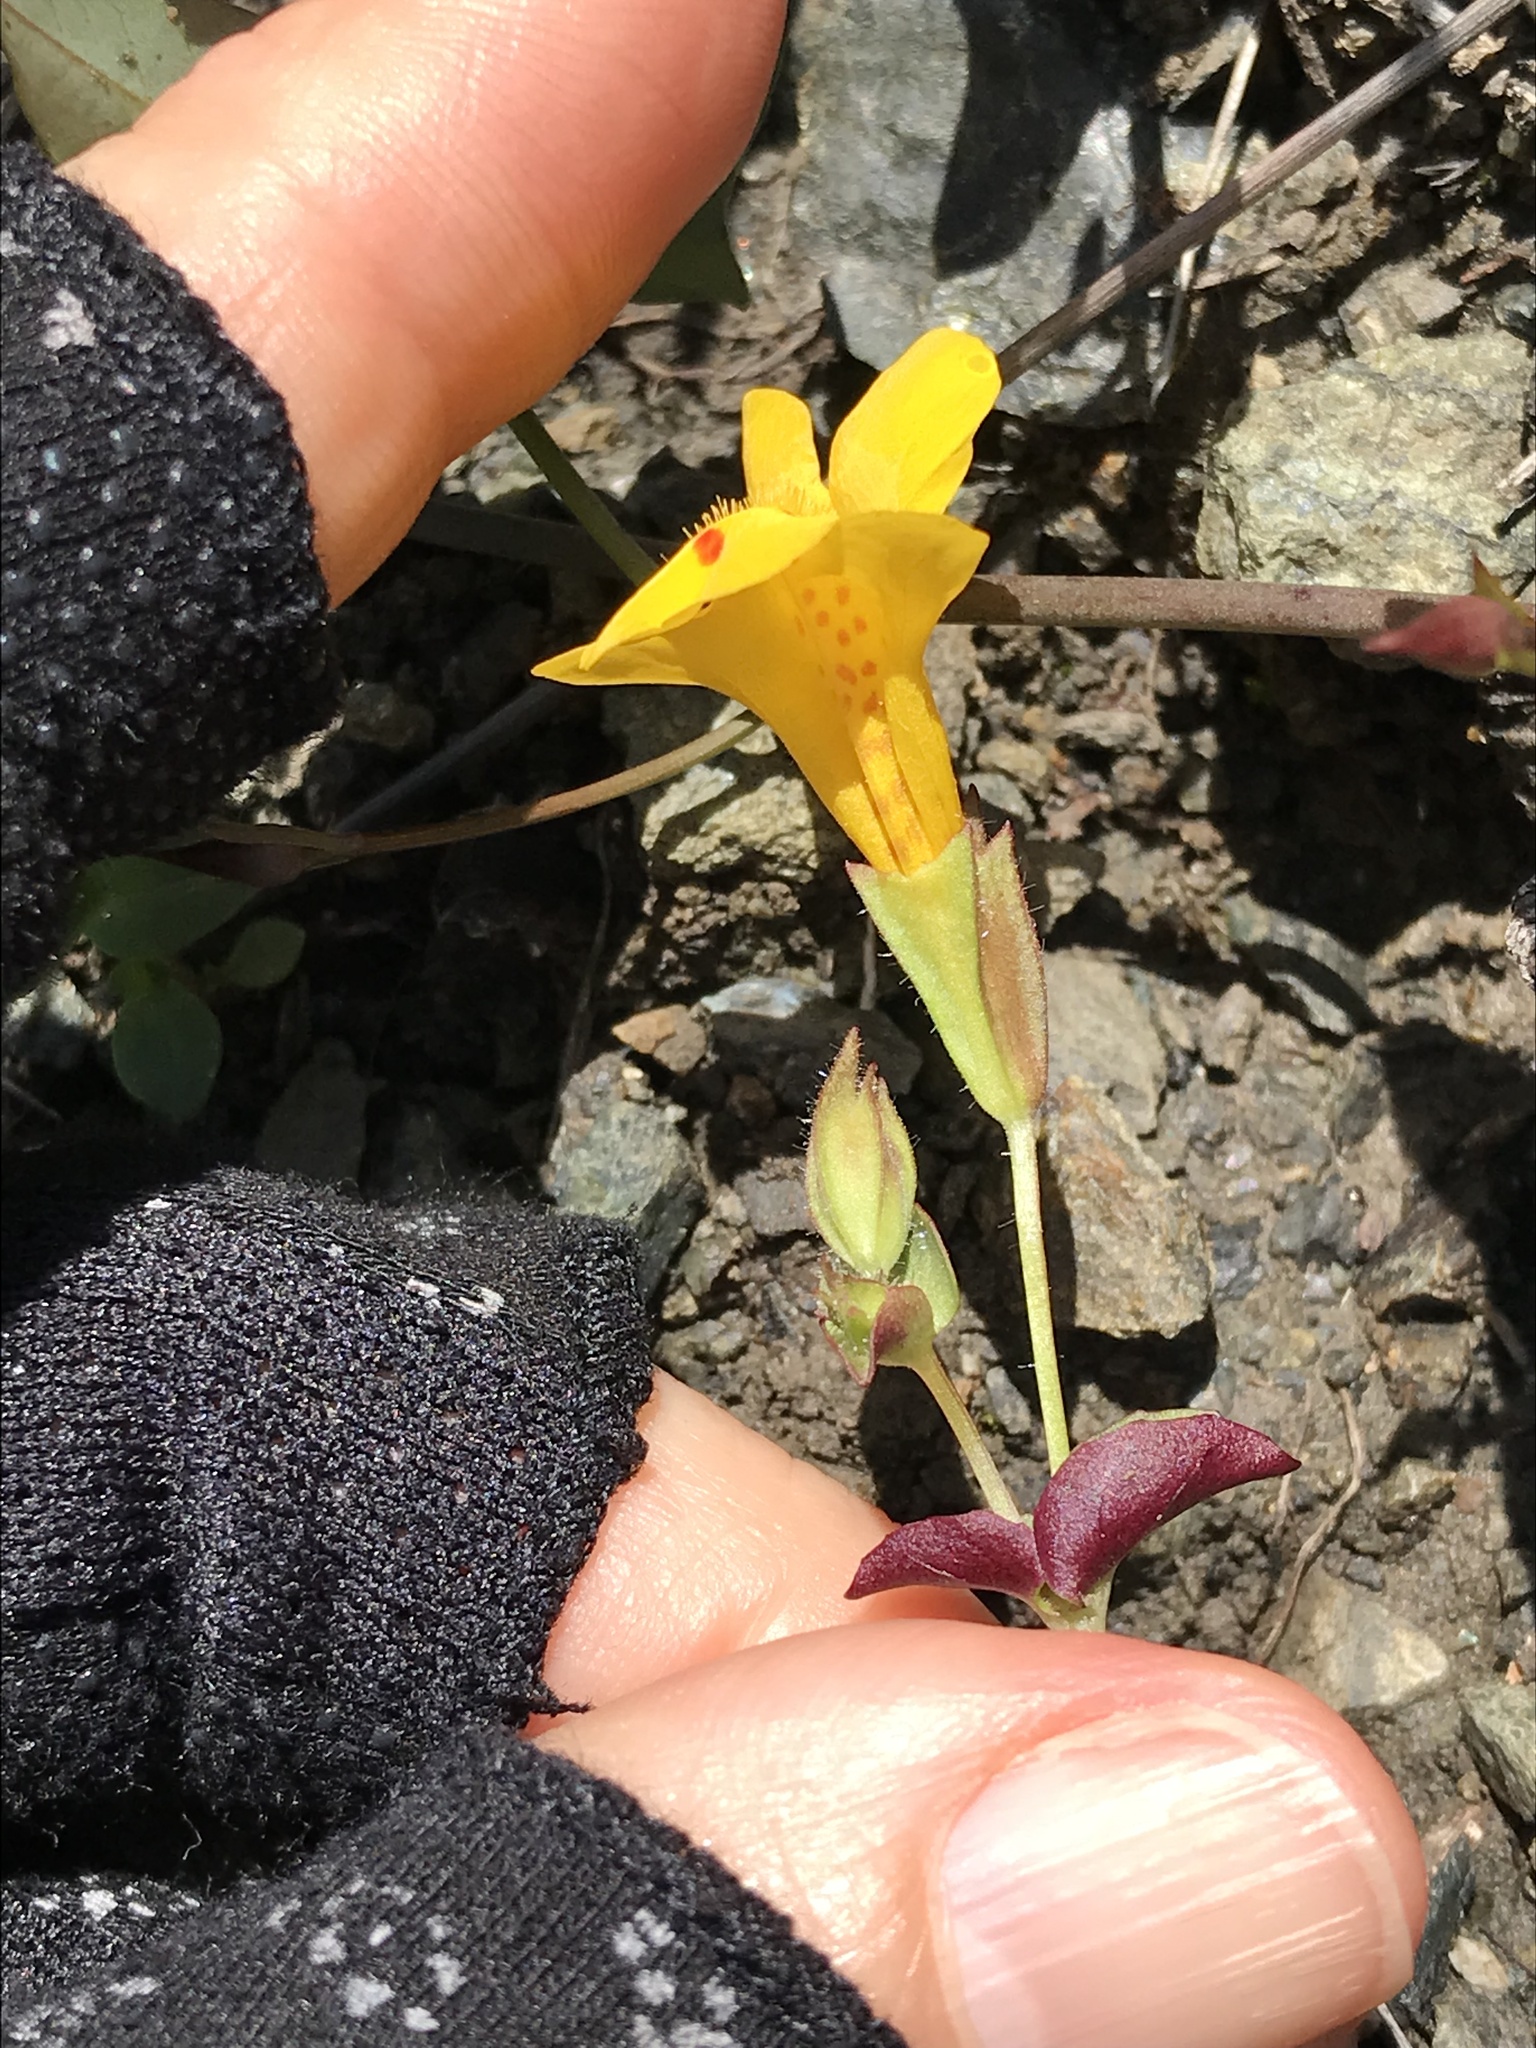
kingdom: Plantae
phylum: Tracheophyta
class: Magnoliopsida
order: Lamiales
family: Phrymaceae
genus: Erythranthe
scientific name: Erythranthe microphylla
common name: Bentham's monkeyflower
